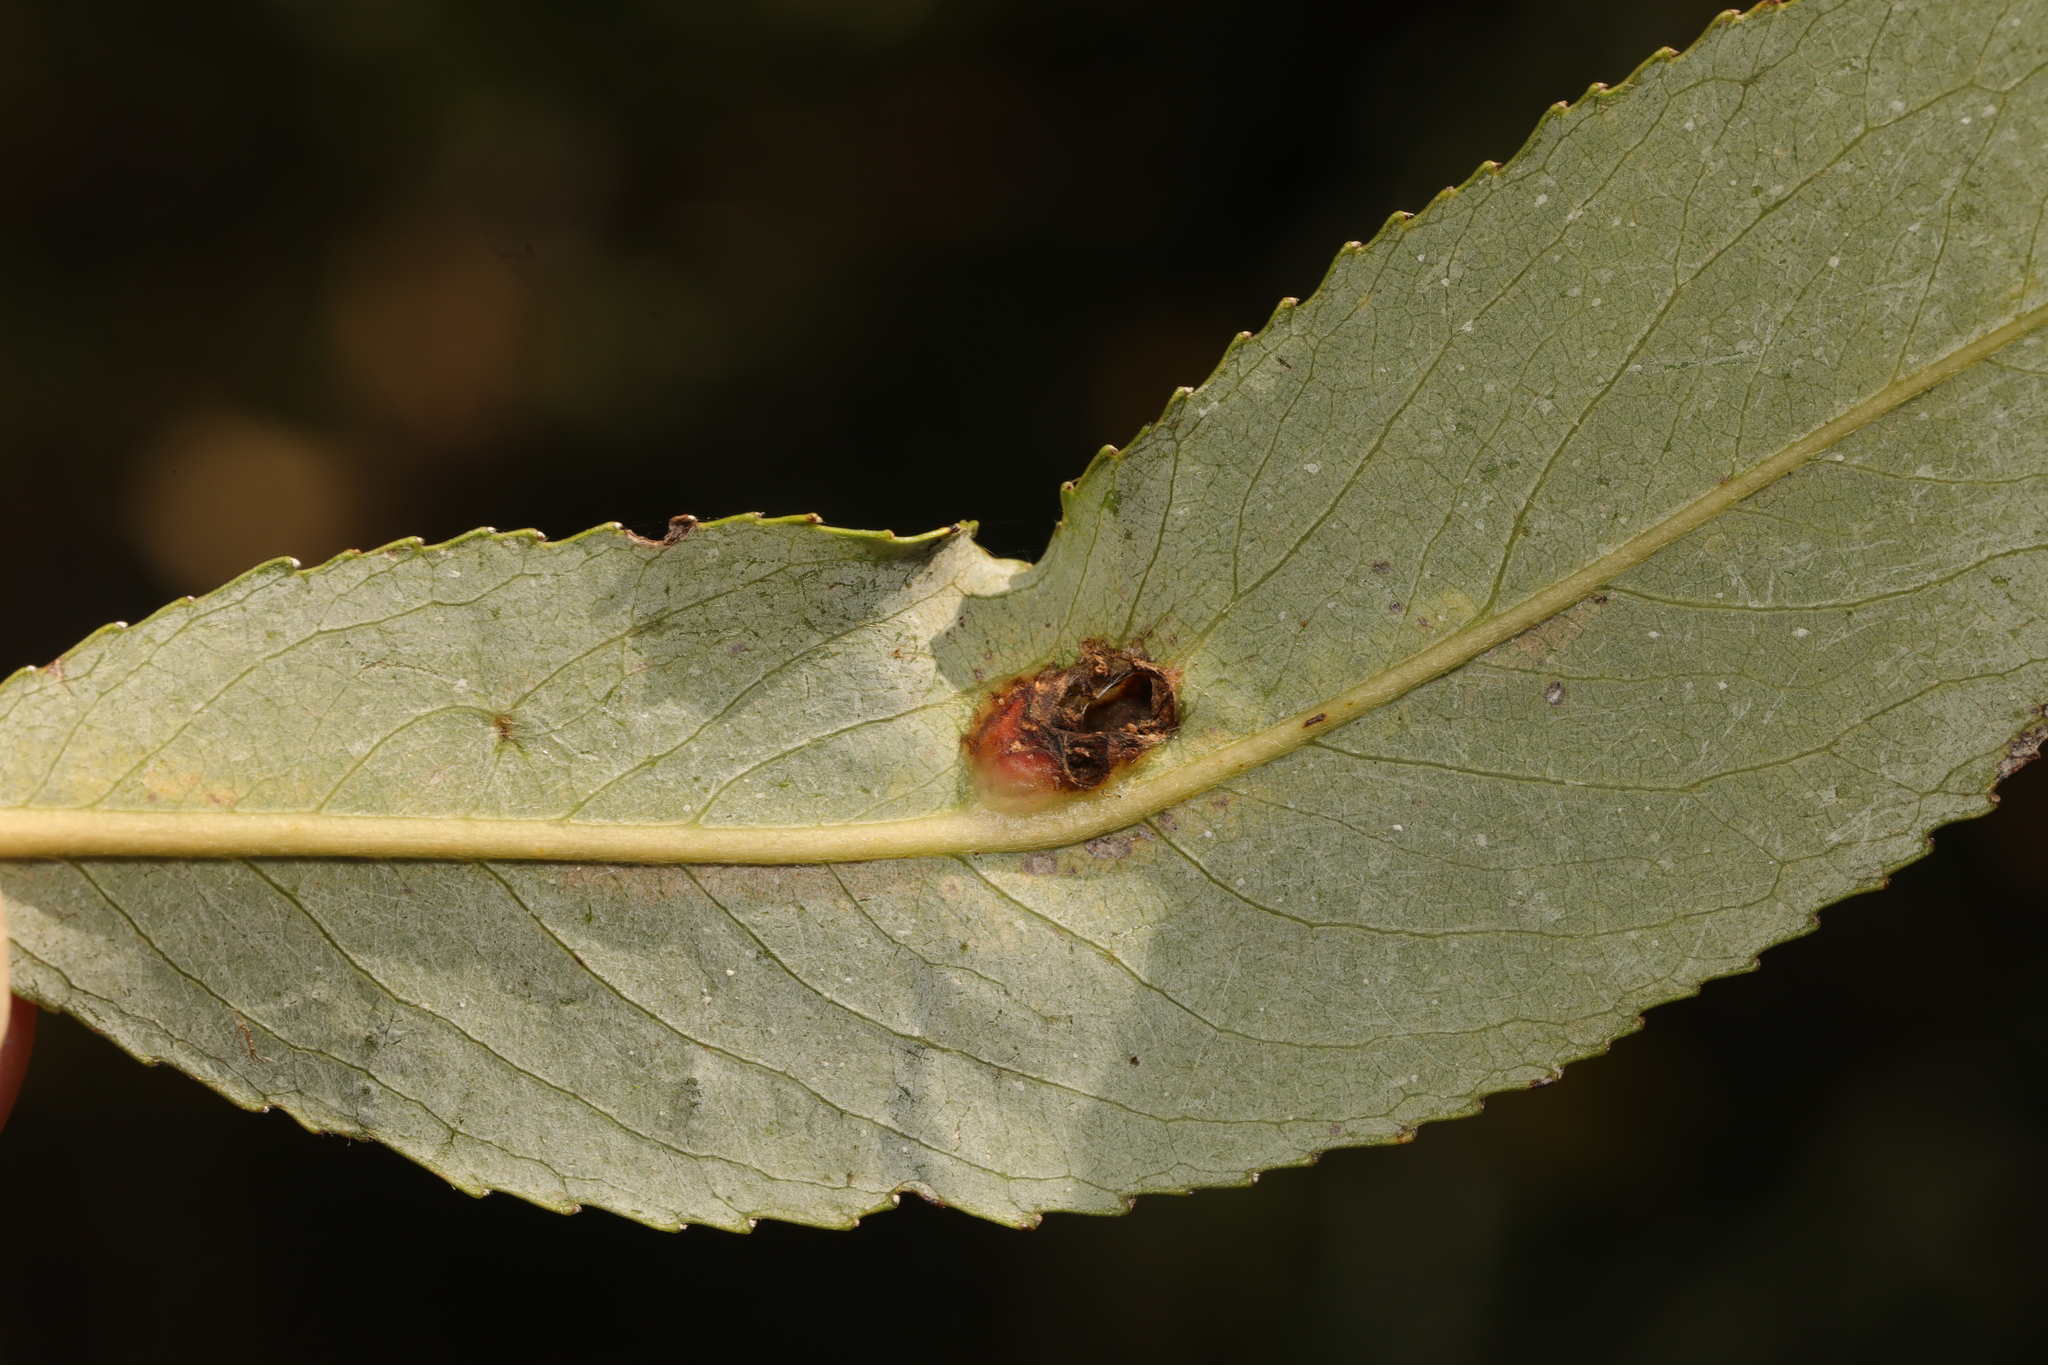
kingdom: Animalia
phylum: Arthropoda
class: Insecta
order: Hymenoptera
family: Tenthredinidae
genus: Pontania
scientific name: Pontania proxima
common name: Common sawfly
